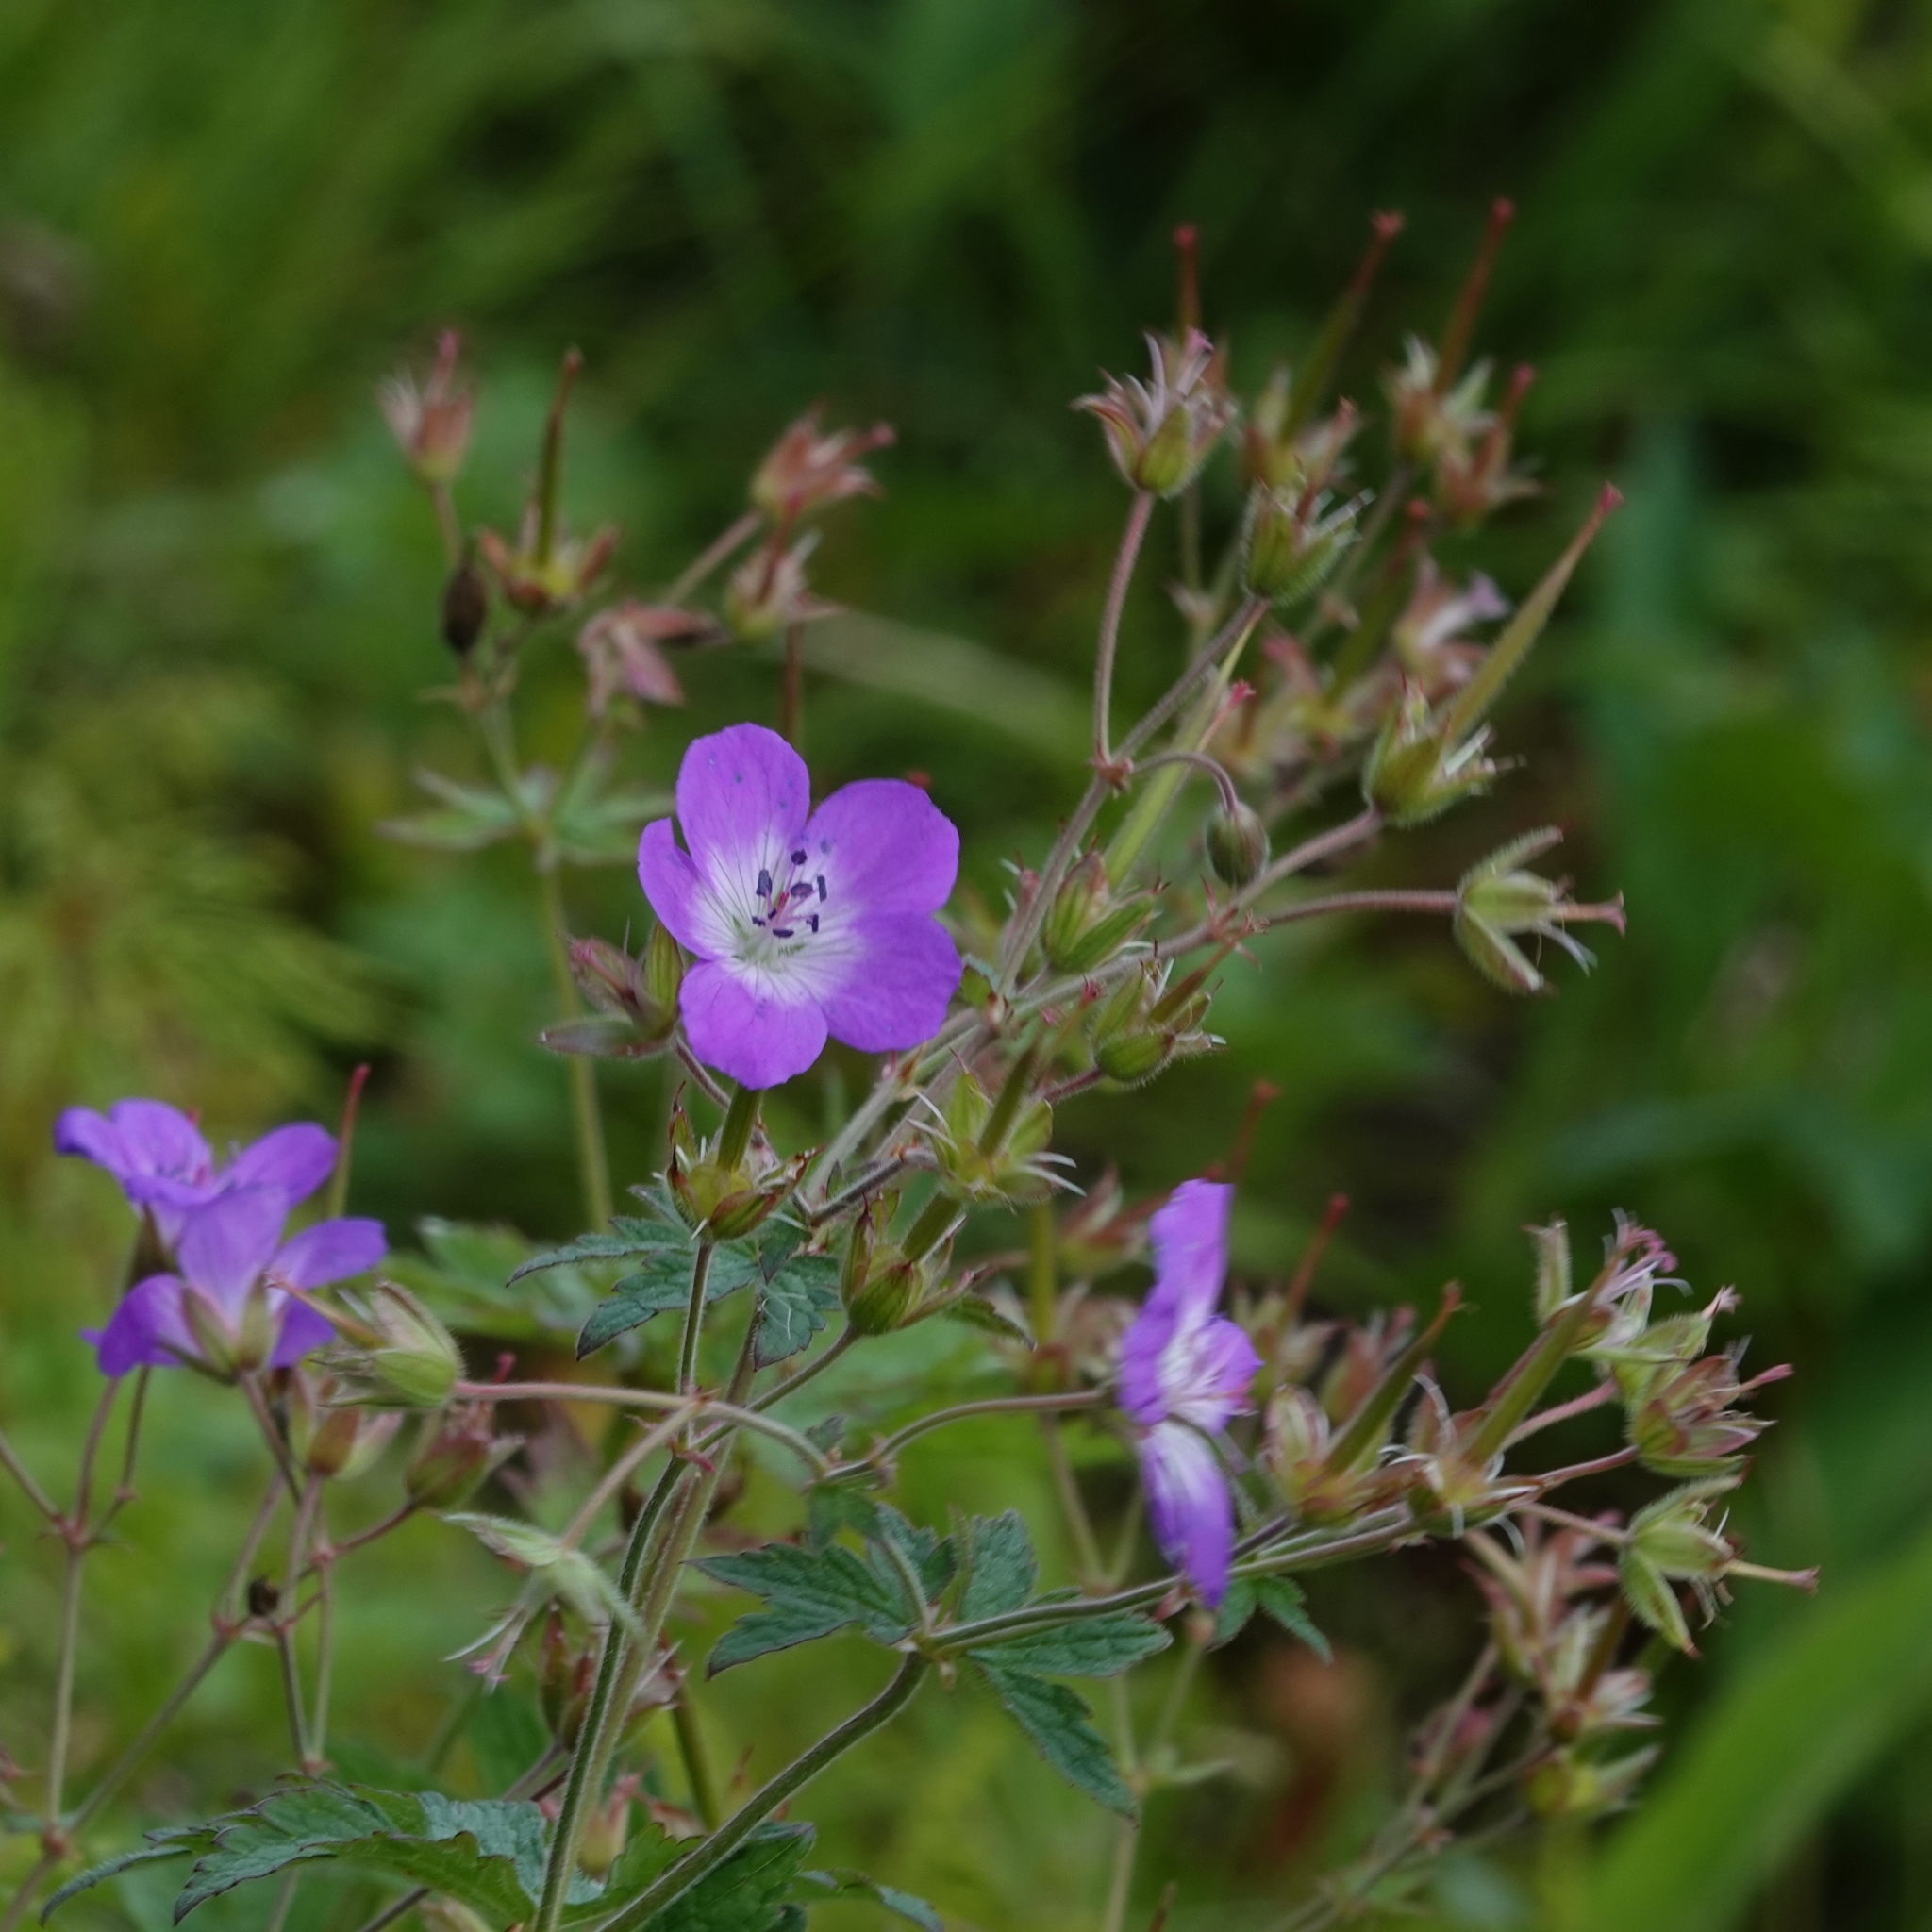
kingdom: Plantae
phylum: Tracheophyta
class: Magnoliopsida
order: Geraniales
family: Geraniaceae
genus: Geranium
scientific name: Geranium sylvaticum
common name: Wood crane's-bill
